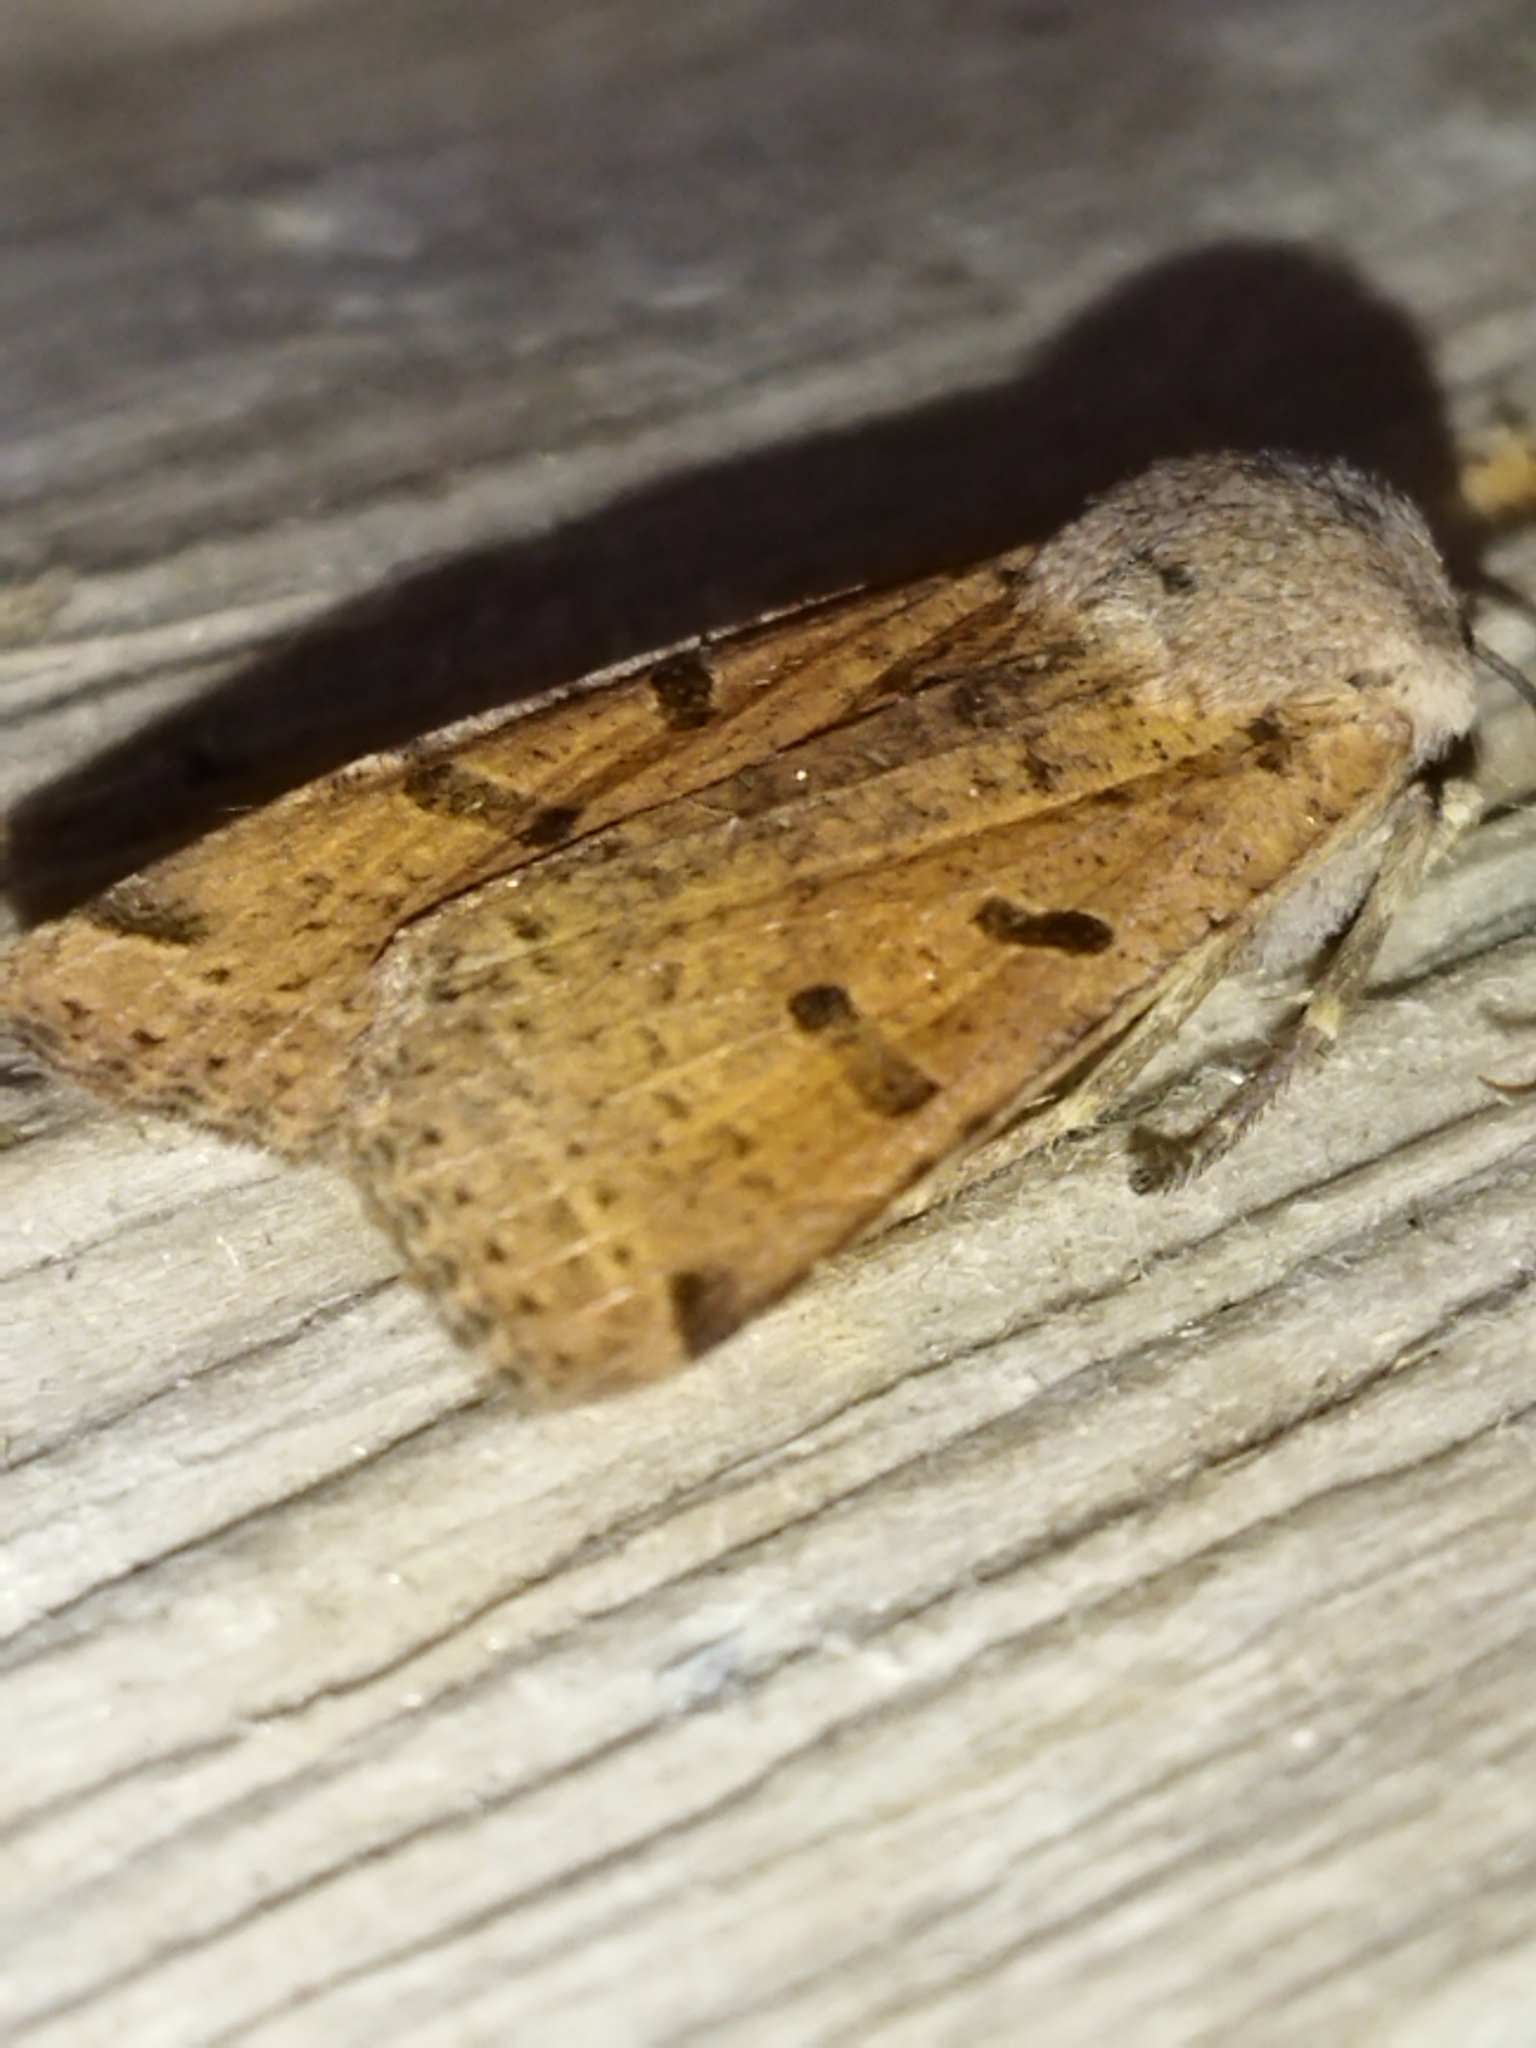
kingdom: Animalia
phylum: Arthropoda
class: Insecta
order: Lepidoptera
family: Noctuidae
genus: Agrochola
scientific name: Agrochola lychnidis
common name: Beaded chestnut
